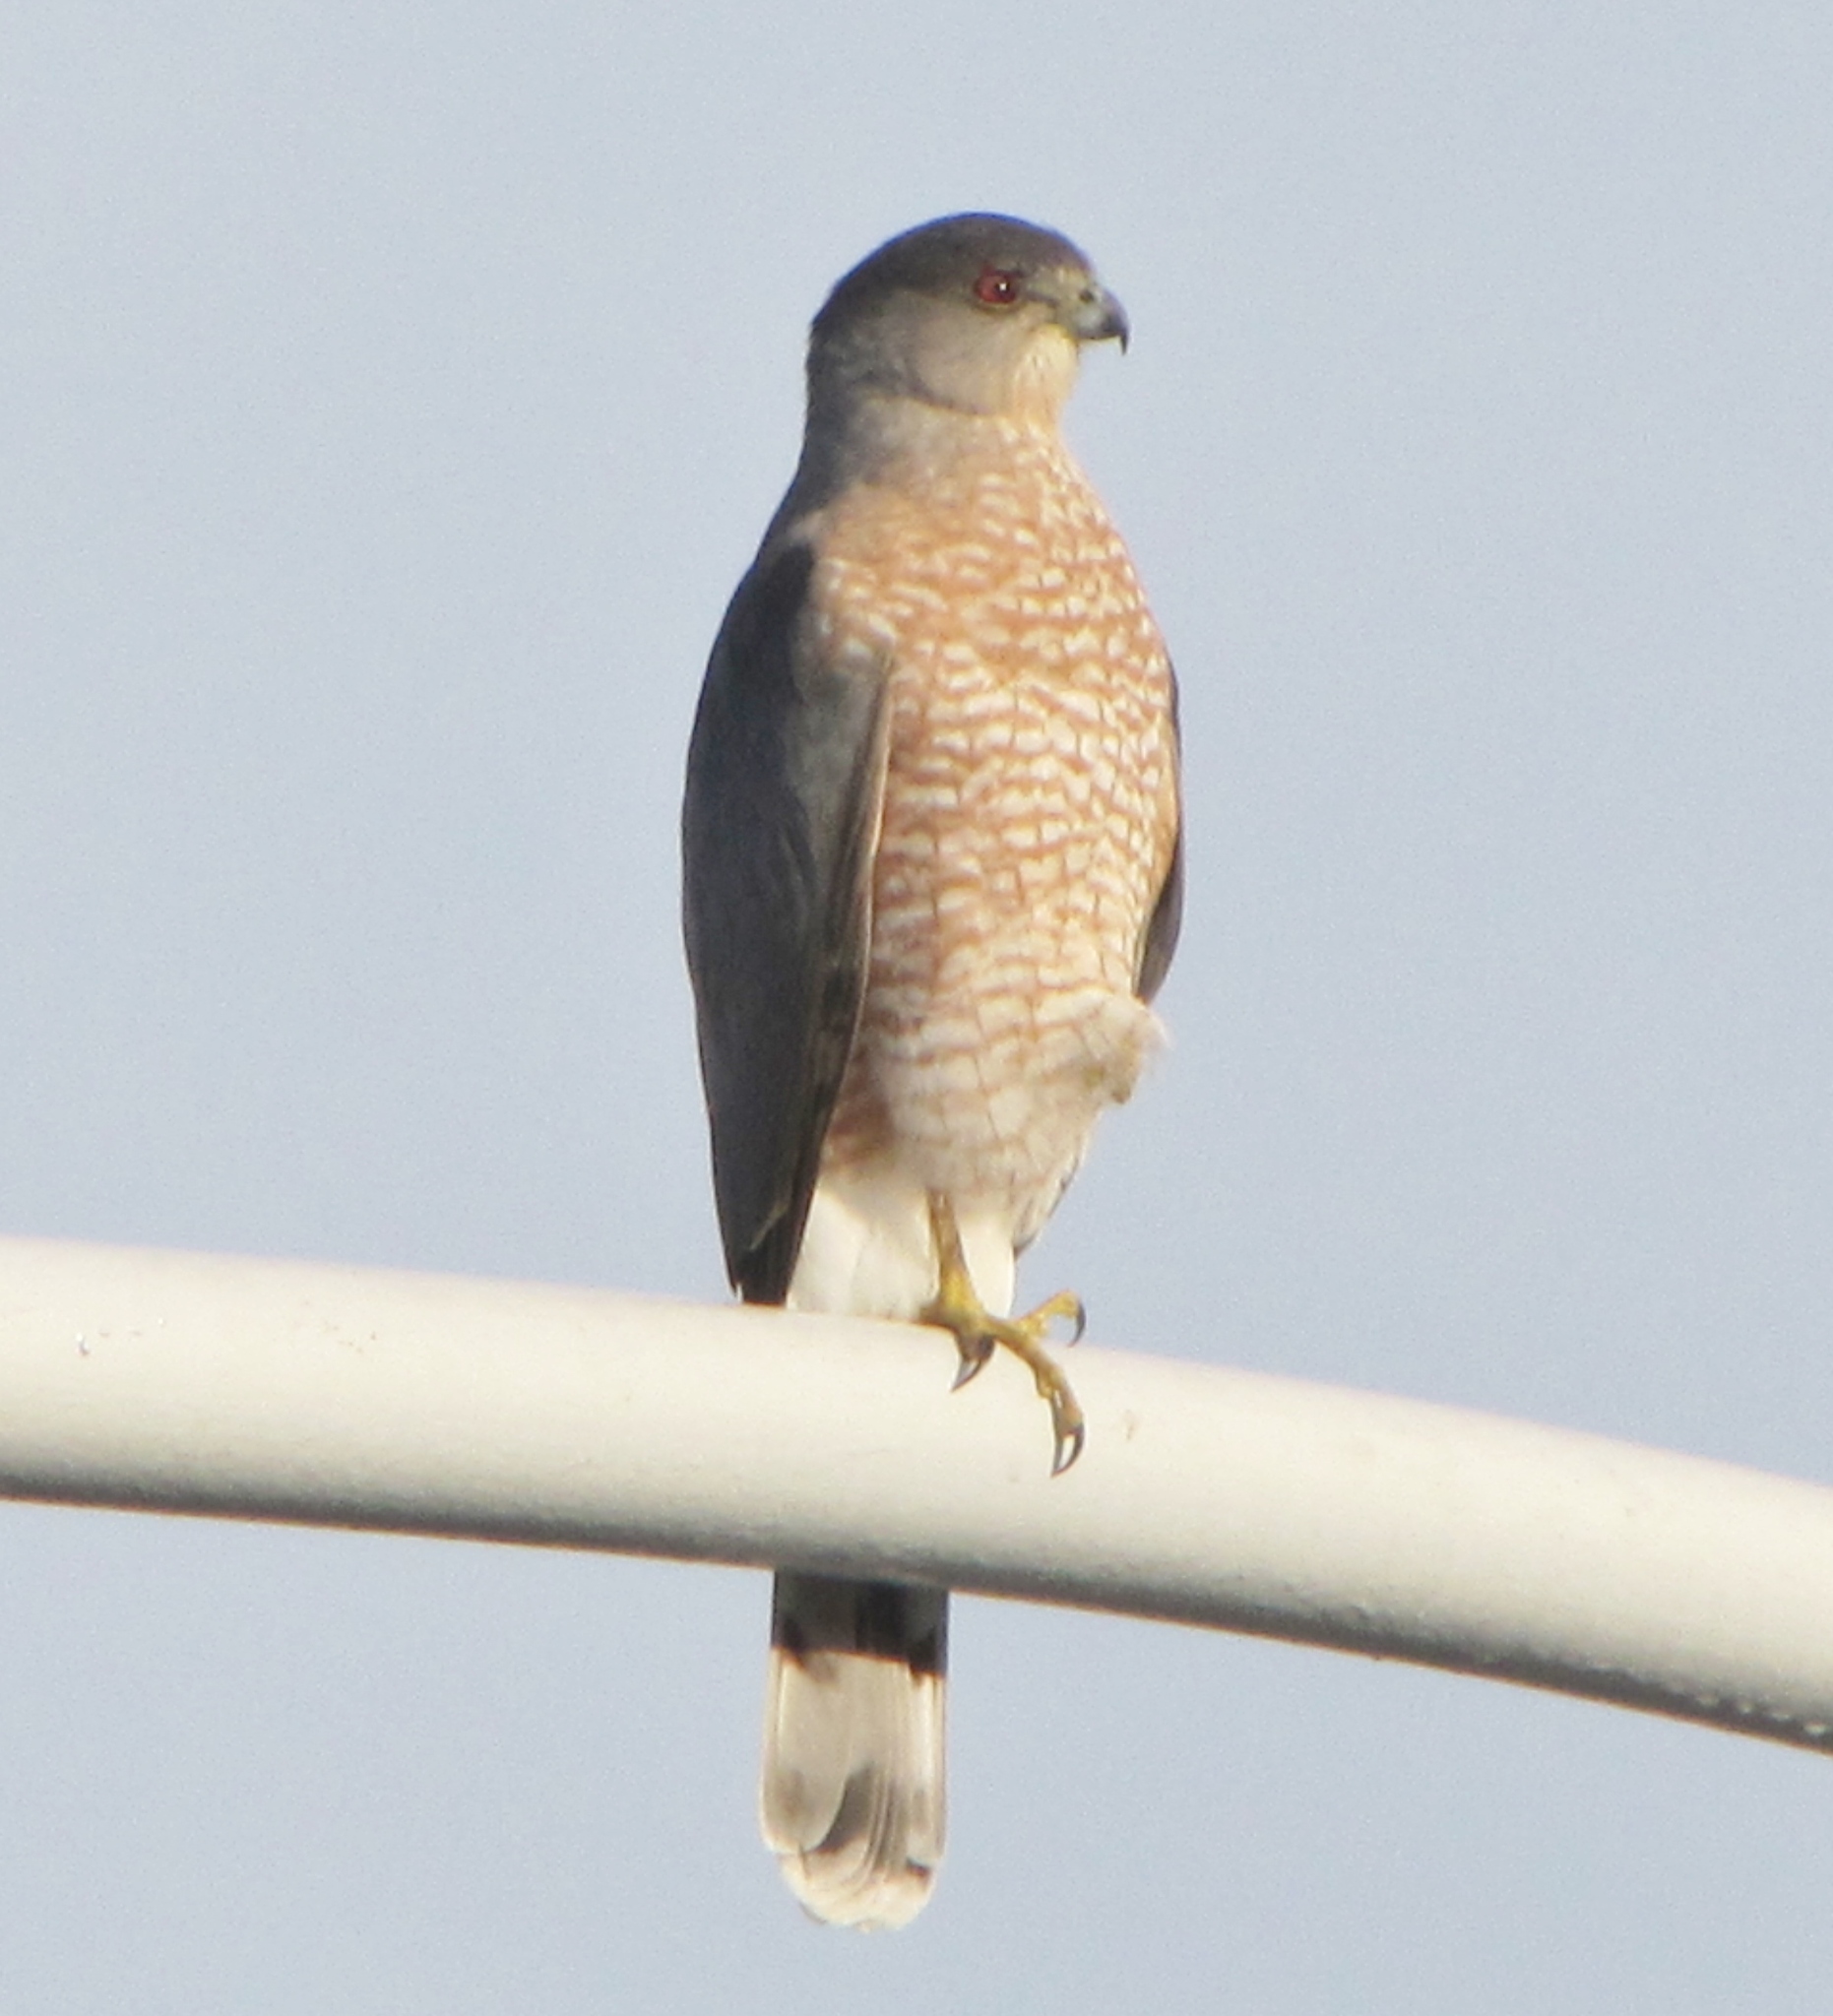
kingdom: Animalia
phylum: Chordata
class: Aves
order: Accipitriformes
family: Accipitridae
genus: Accipiter
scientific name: Accipiter cooperii
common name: Cooper's hawk
